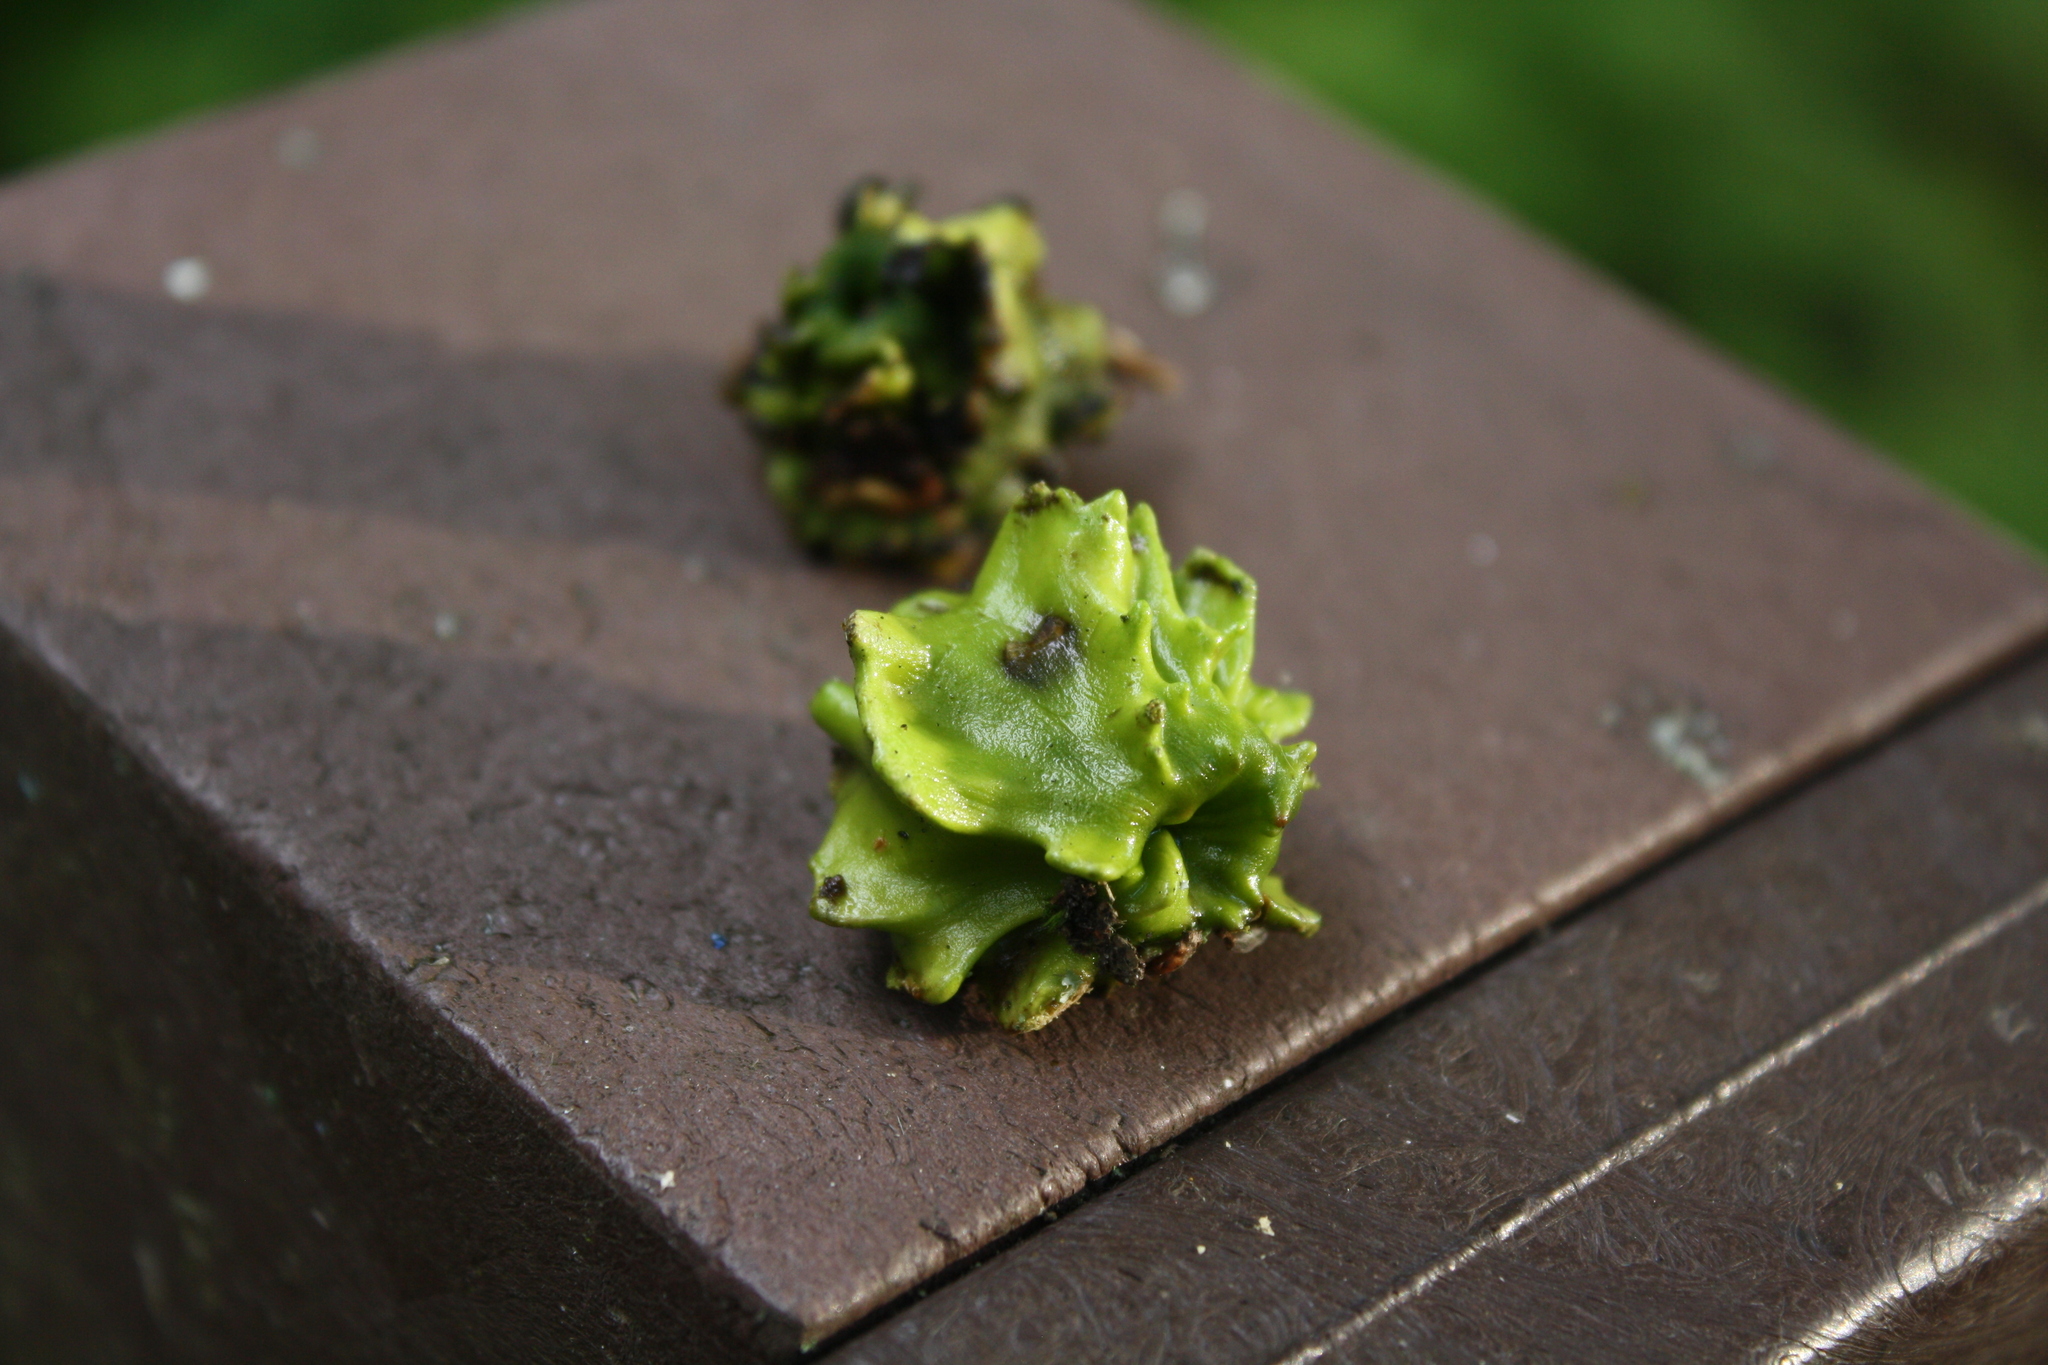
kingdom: Animalia
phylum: Arthropoda
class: Insecta
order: Hymenoptera
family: Cynipidae
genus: Andricus
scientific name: Andricus quercuscalicis
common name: Knopper gall
